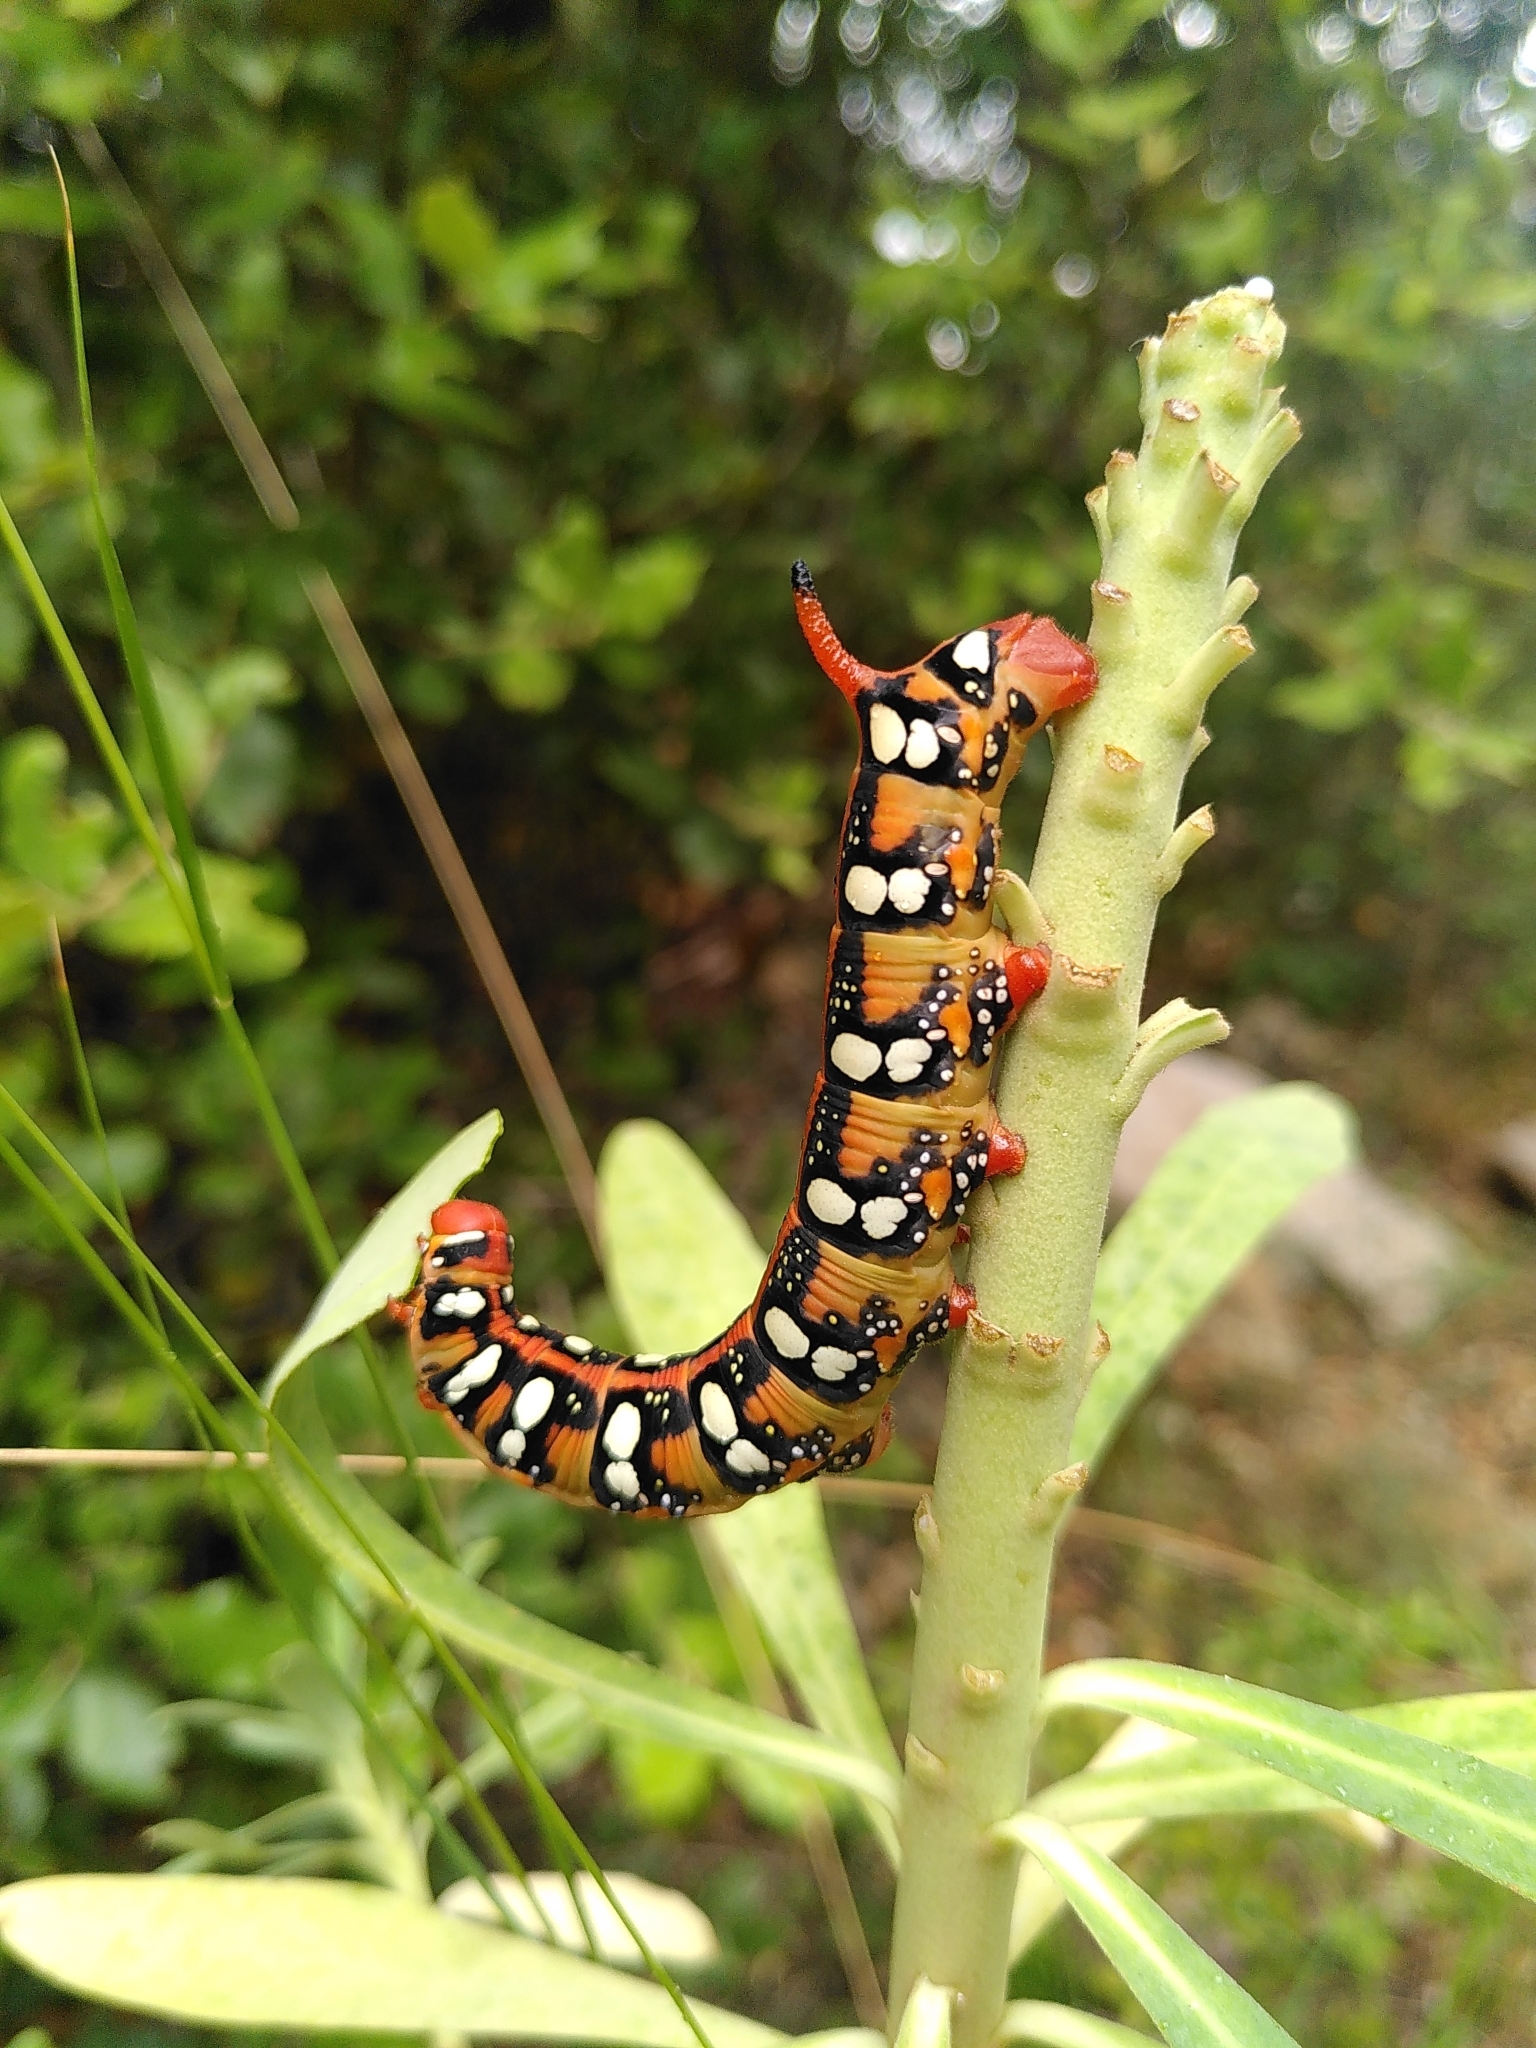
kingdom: Animalia
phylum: Arthropoda
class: Insecta
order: Lepidoptera
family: Sphingidae
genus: Hyles
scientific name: Hyles euphorbiae
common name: Spurge hawk-moth
